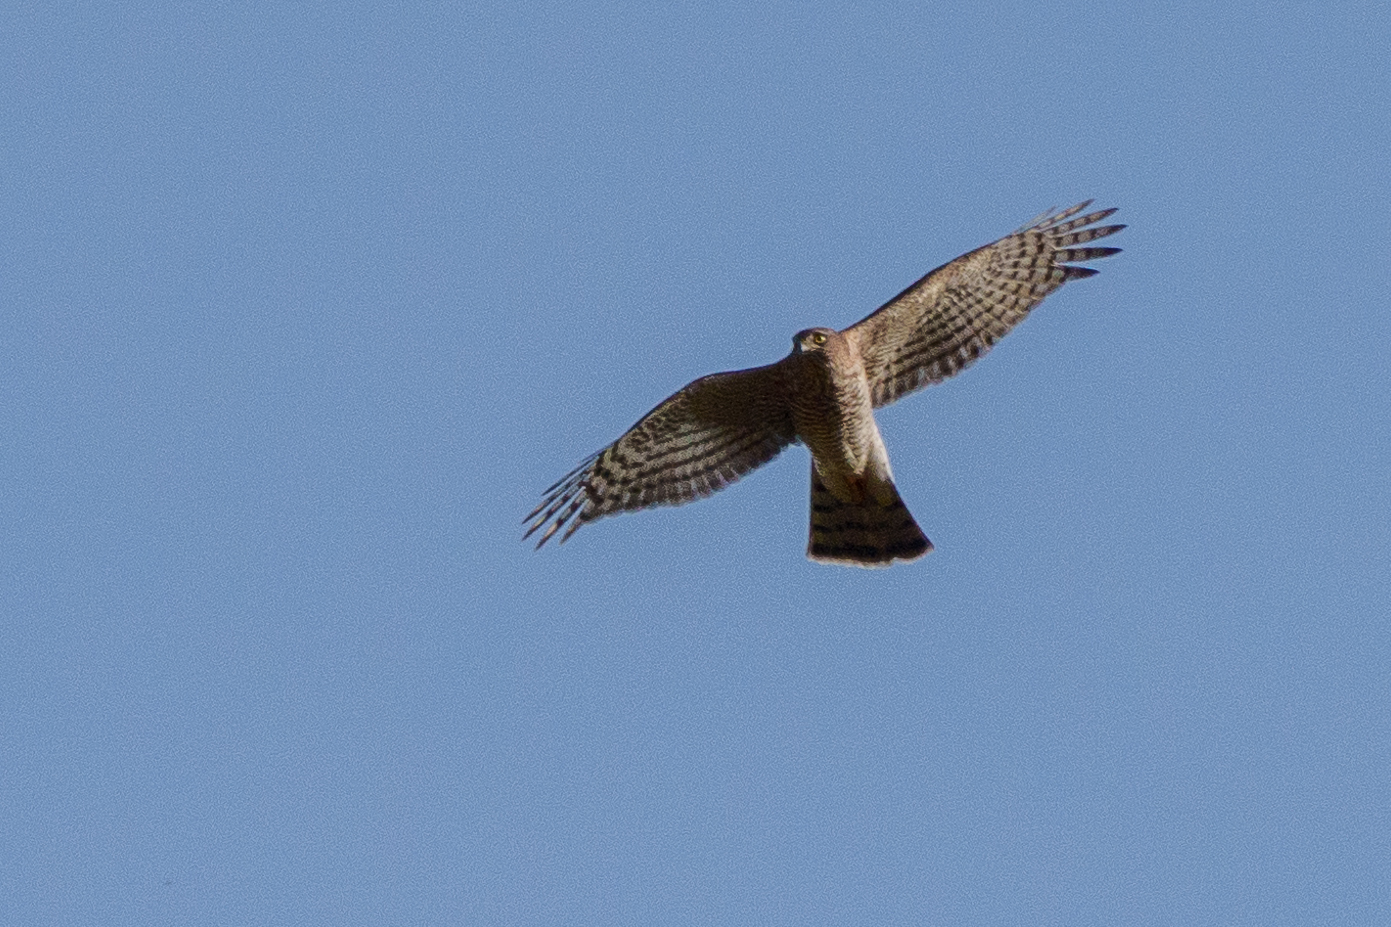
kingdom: Animalia
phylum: Chordata
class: Aves
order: Accipitriformes
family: Accipitridae
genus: Accipiter
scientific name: Accipiter nisus
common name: Eurasian sparrowhawk
